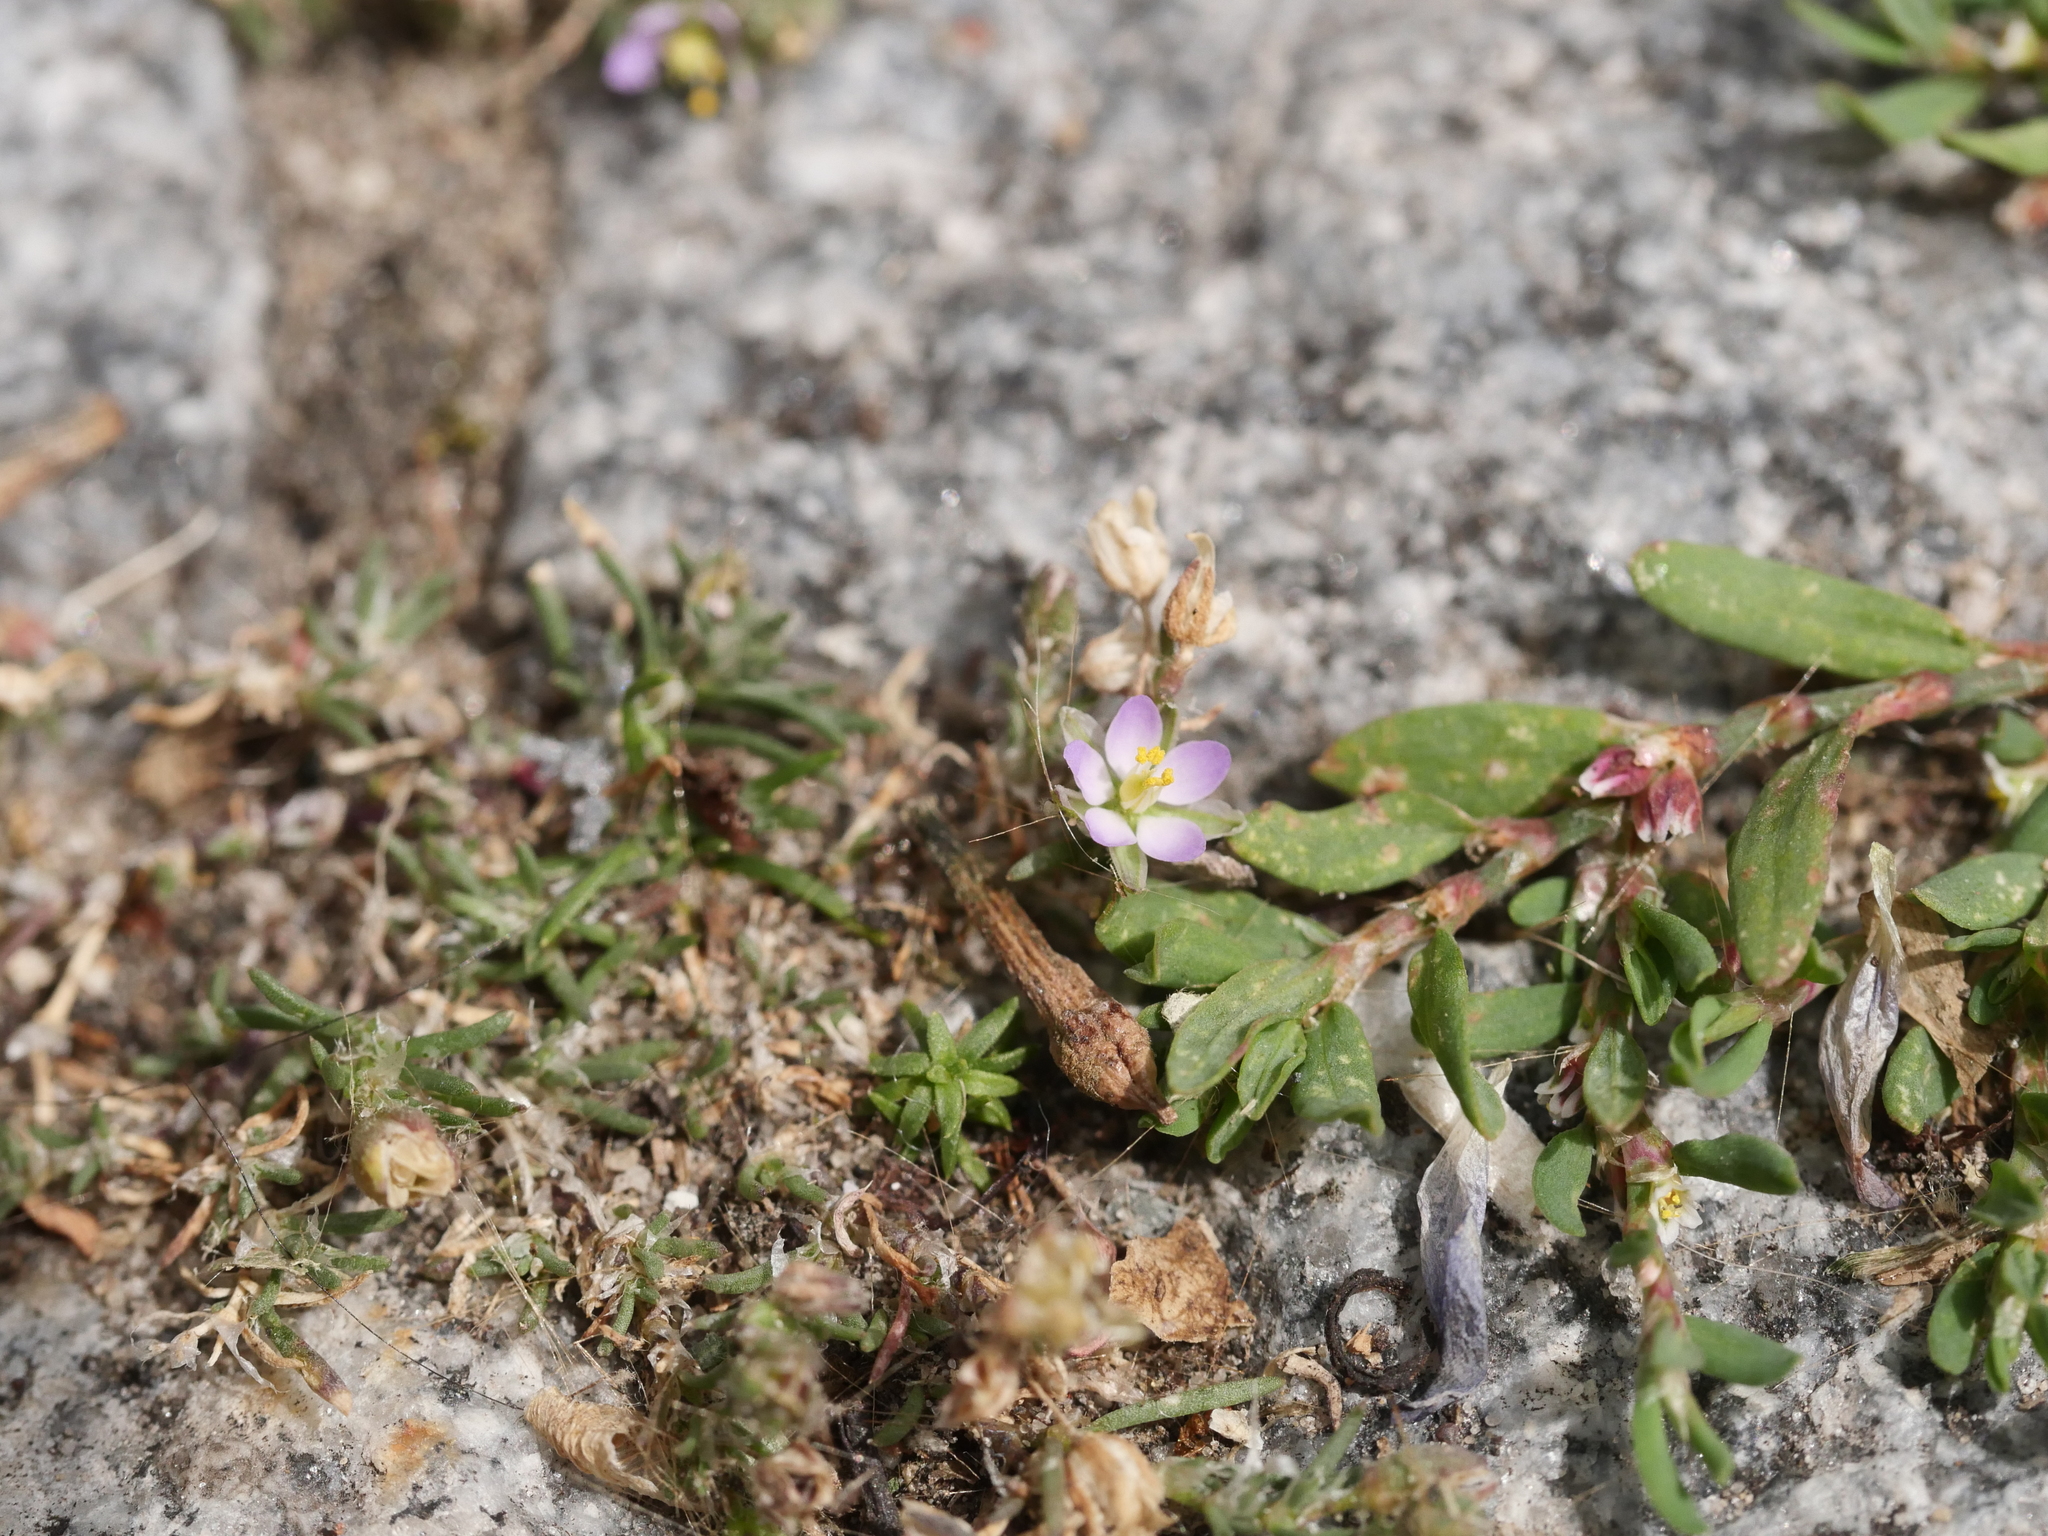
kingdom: Plantae
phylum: Tracheophyta
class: Magnoliopsida
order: Caryophyllales
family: Caryophyllaceae
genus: Spergularia
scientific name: Spergularia rubra
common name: Red sand-spurrey
